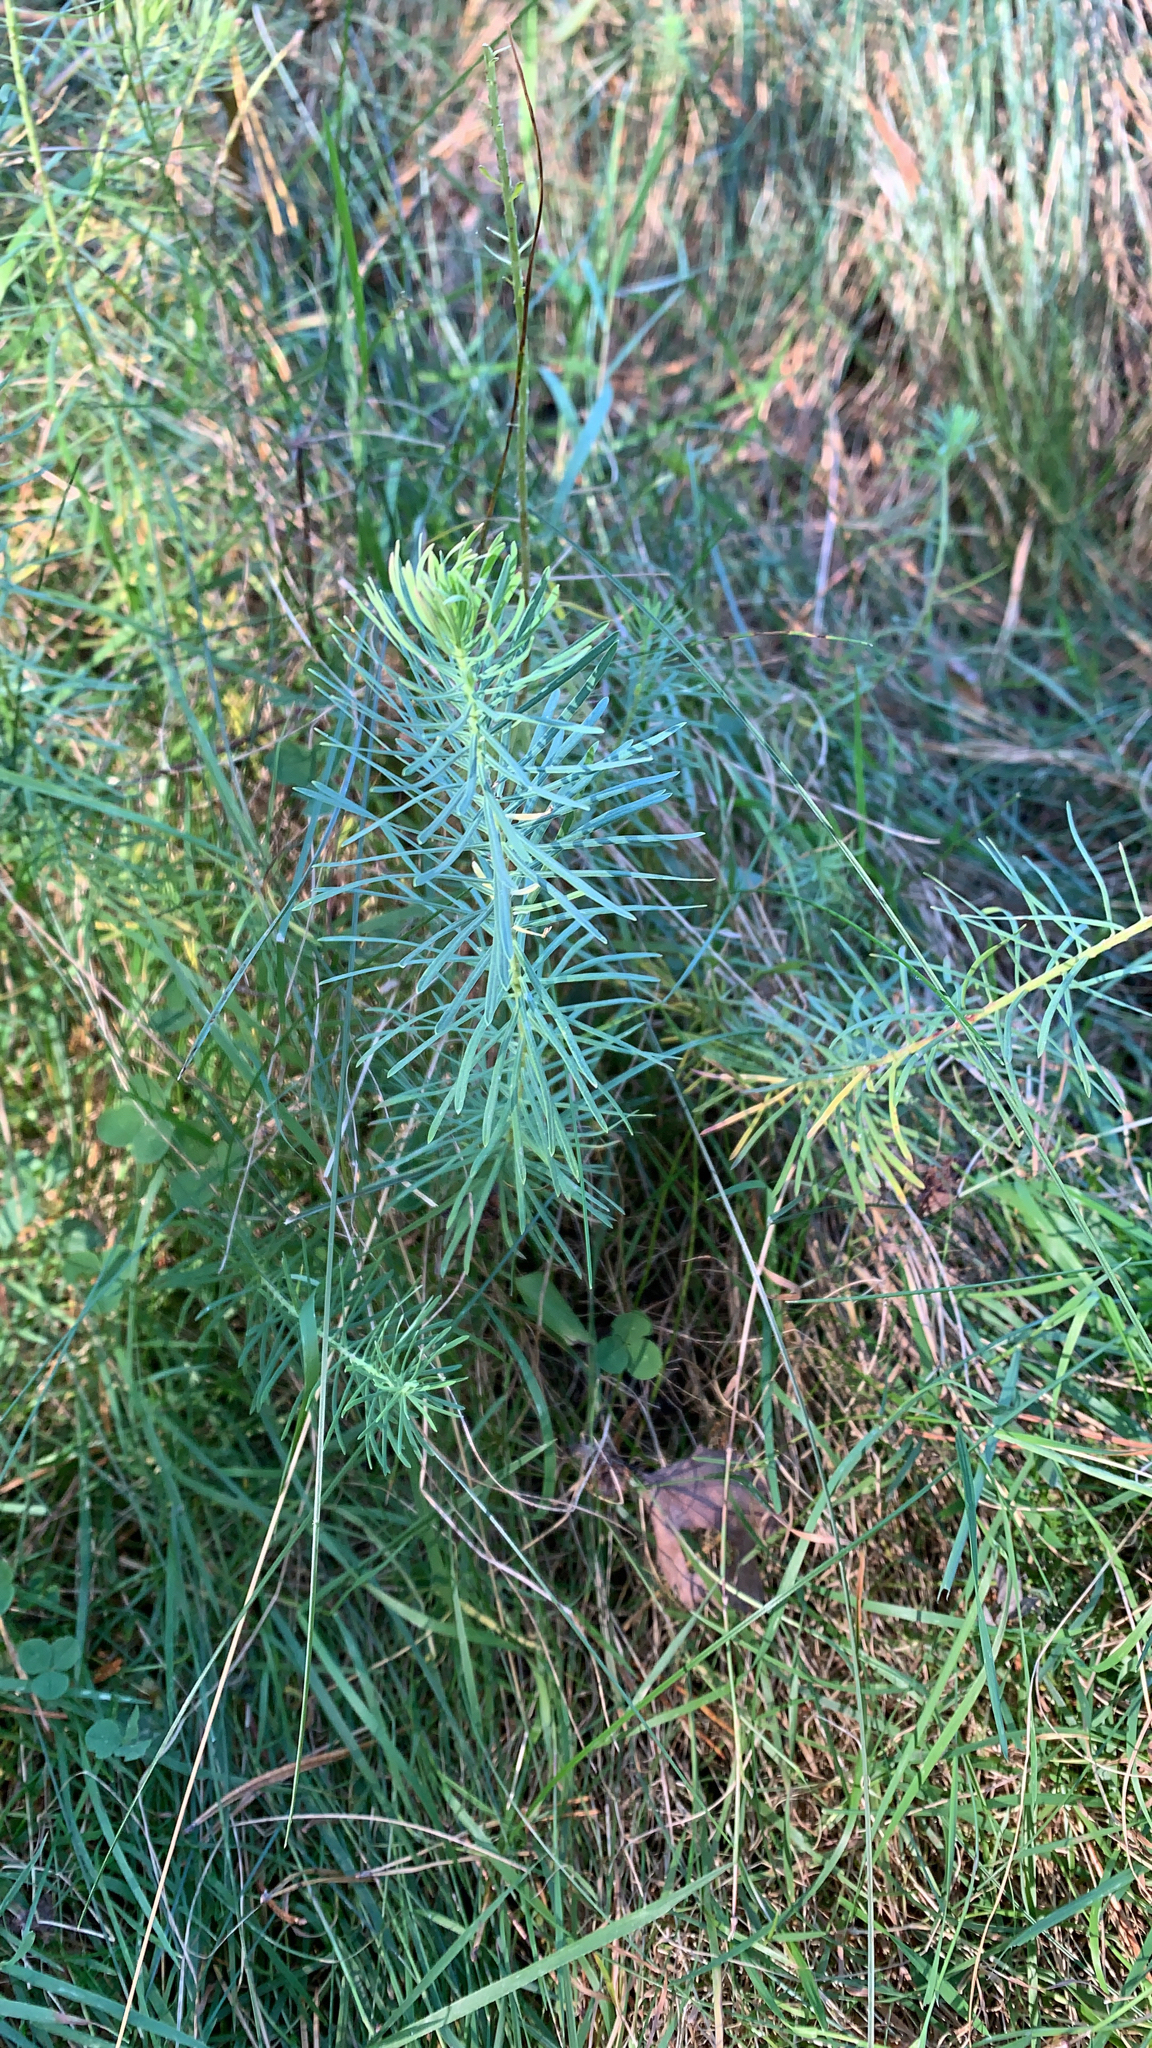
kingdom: Plantae
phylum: Tracheophyta
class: Magnoliopsida
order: Malpighiales
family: Euphorbiaceae
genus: Euphorbia
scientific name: Euphorbia cyparissias
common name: Cypress spurge
